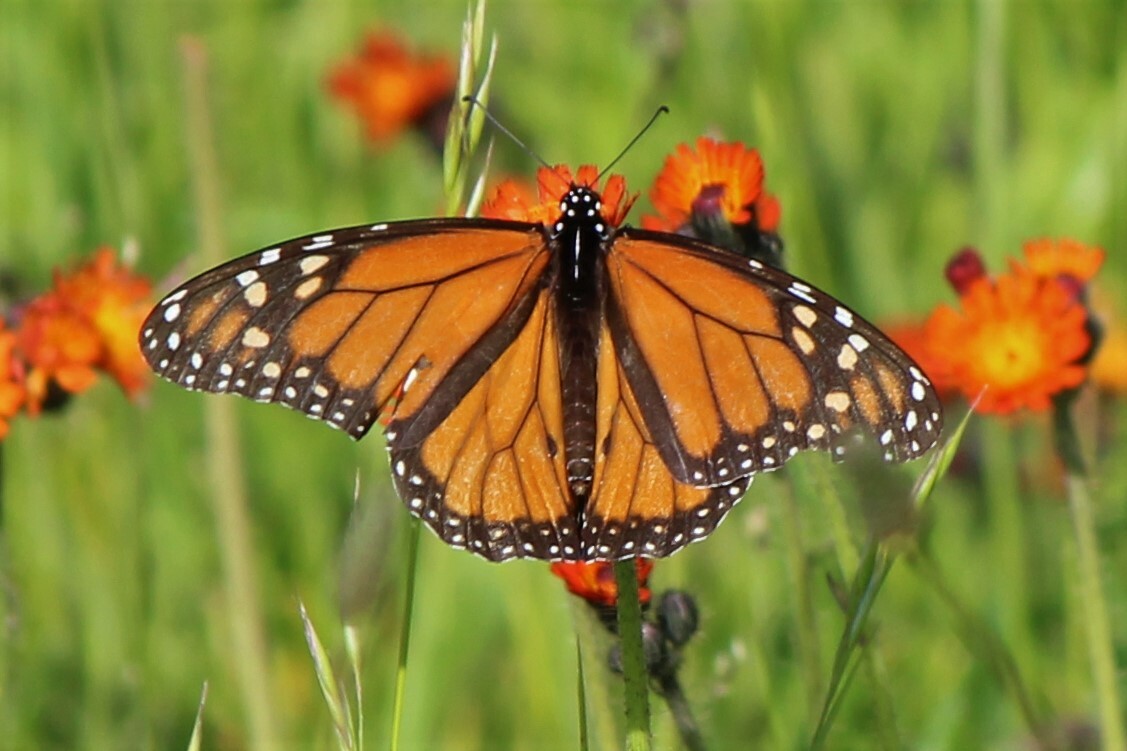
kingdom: Animalia
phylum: Arthropoda
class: Insecta
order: Lepidoptera
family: Nymphalidae
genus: Danaus
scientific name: Danaus plexippus
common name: Monarch
